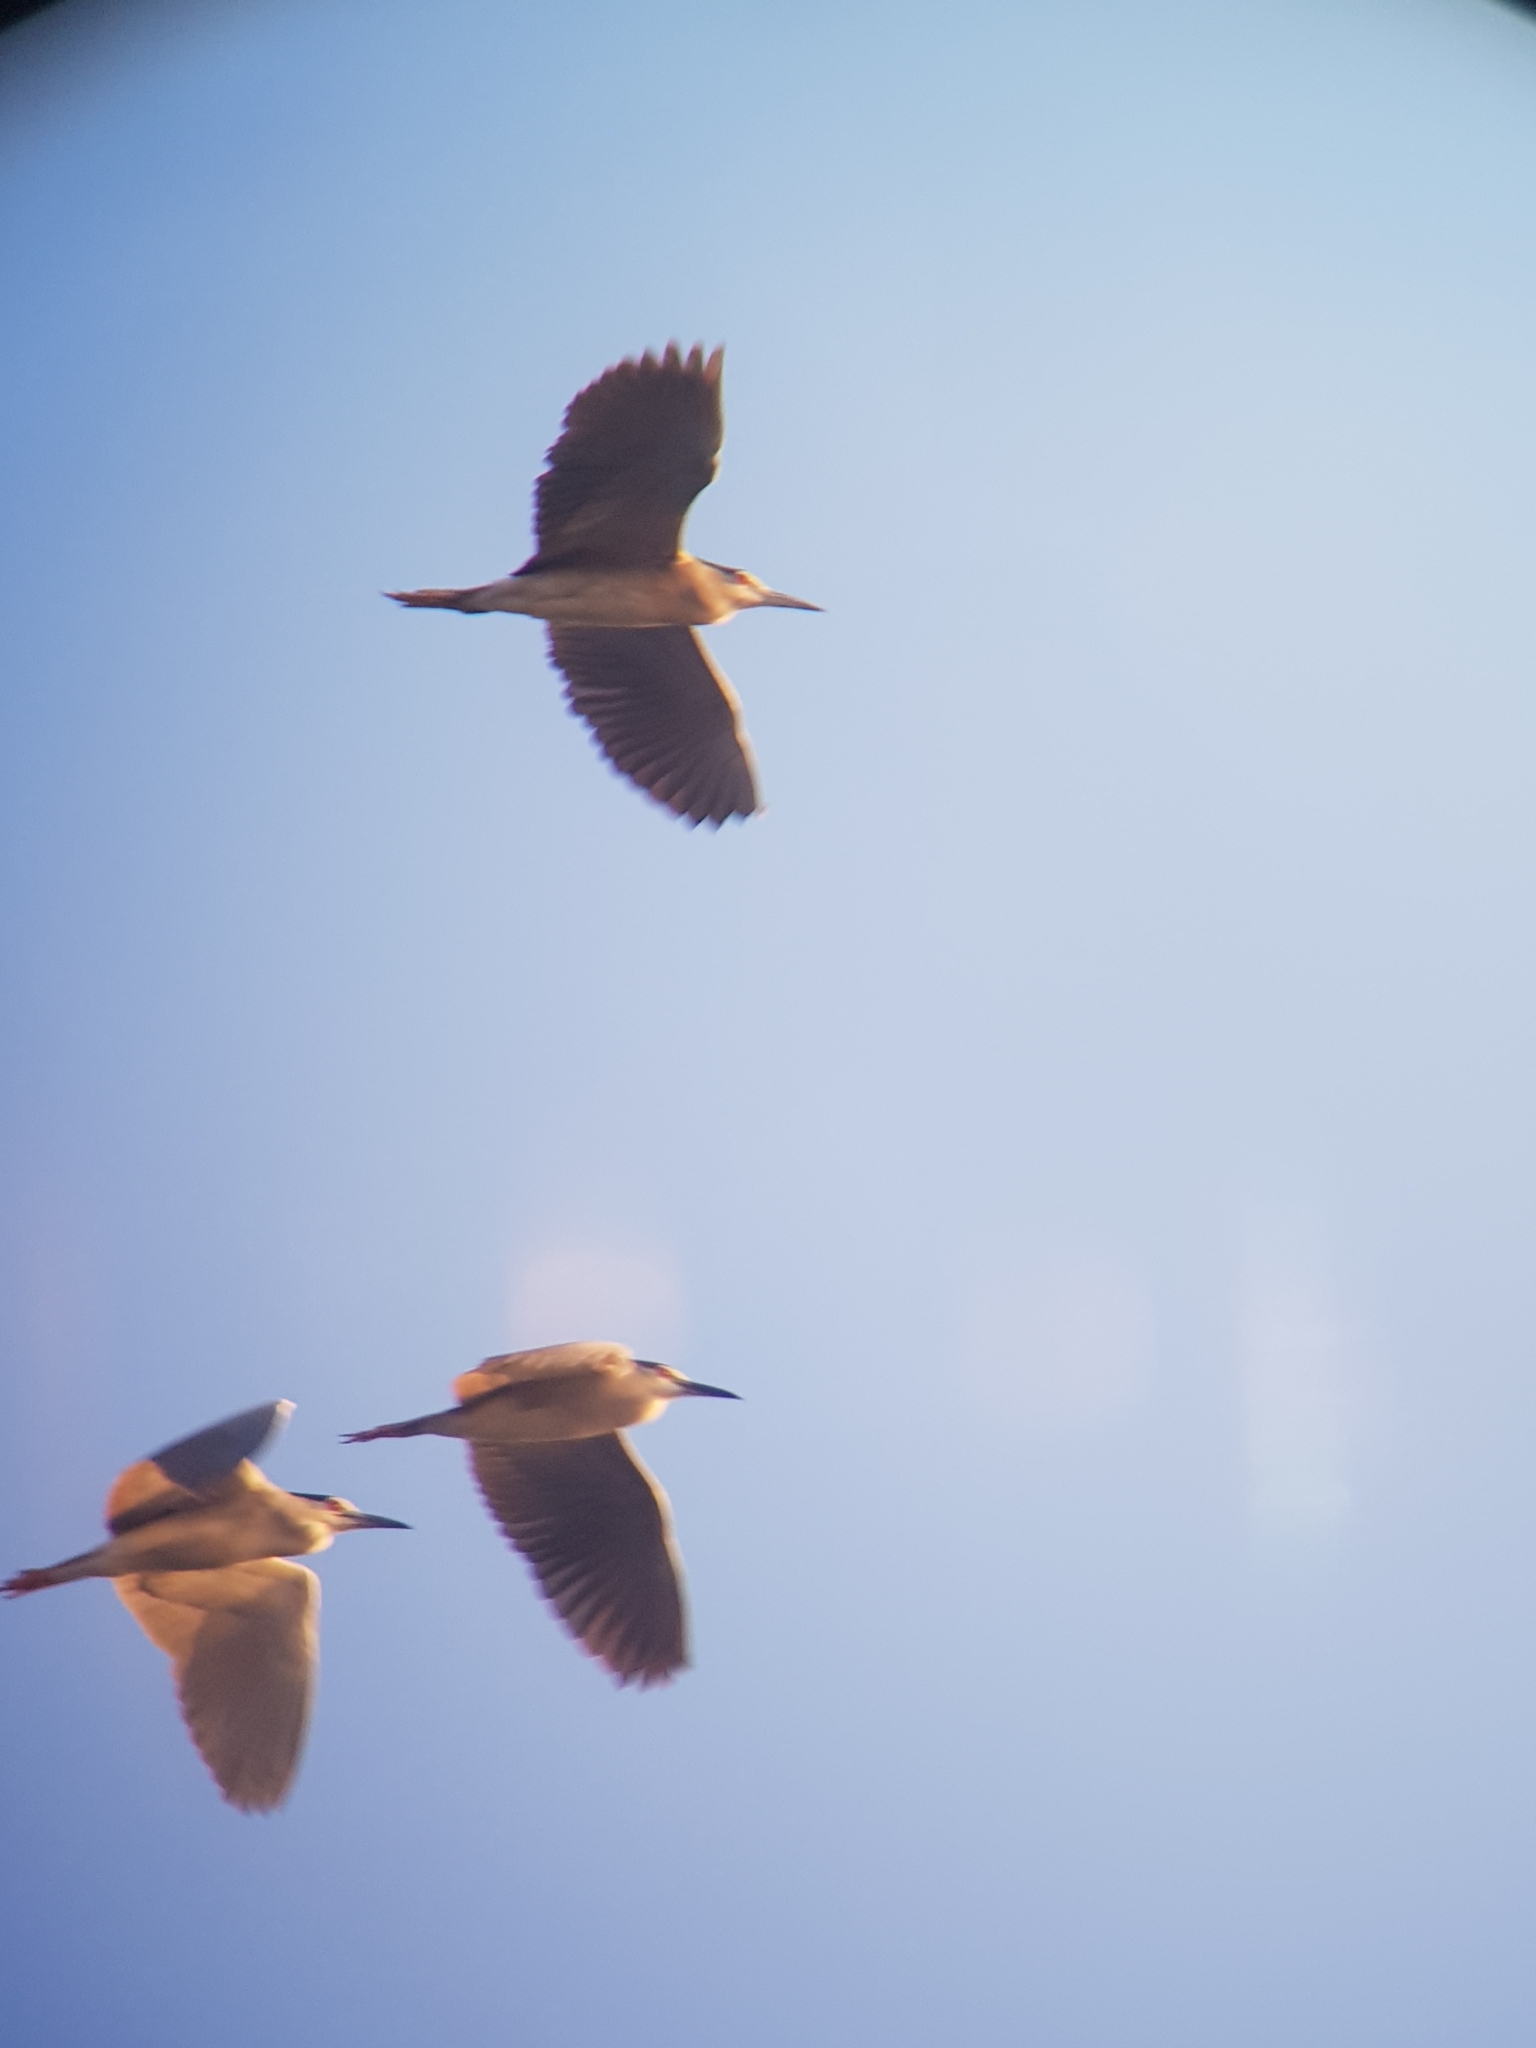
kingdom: Animalia
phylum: Chordata
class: Aves
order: Pelecaniformes
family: Ardeidae
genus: Nycticorax
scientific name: Nycticorax nycticorax
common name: Black-crowned night heron
